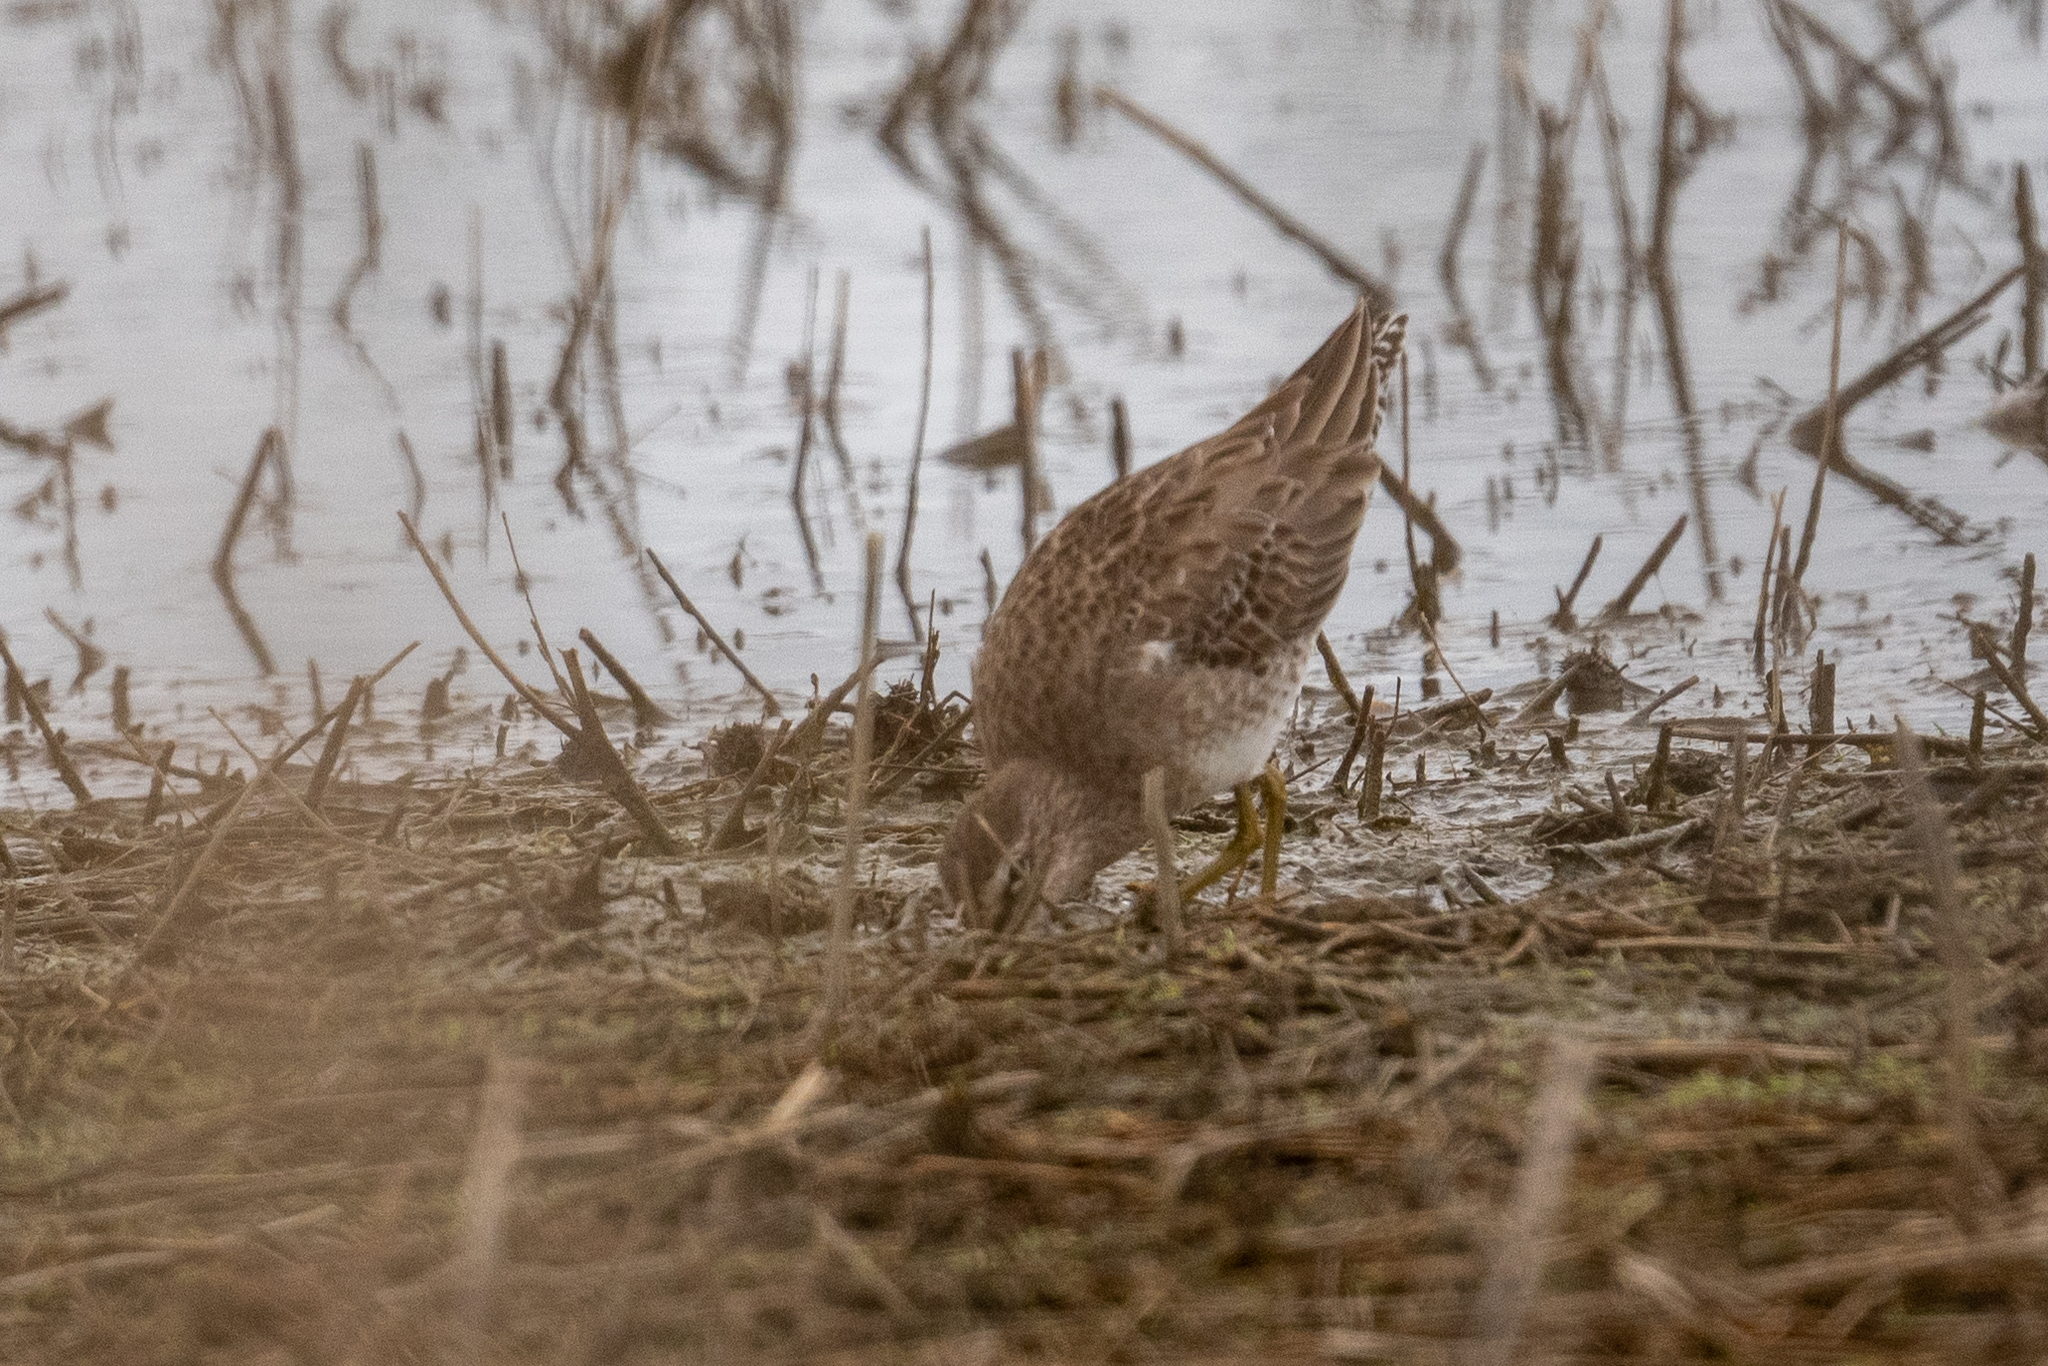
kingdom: Animalia
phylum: Chordata
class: Aves
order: Charadriiformes
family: Scolopacidae
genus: Limnodromus
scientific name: Limnodromus scolopaceus
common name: Long-billed dowitcher
